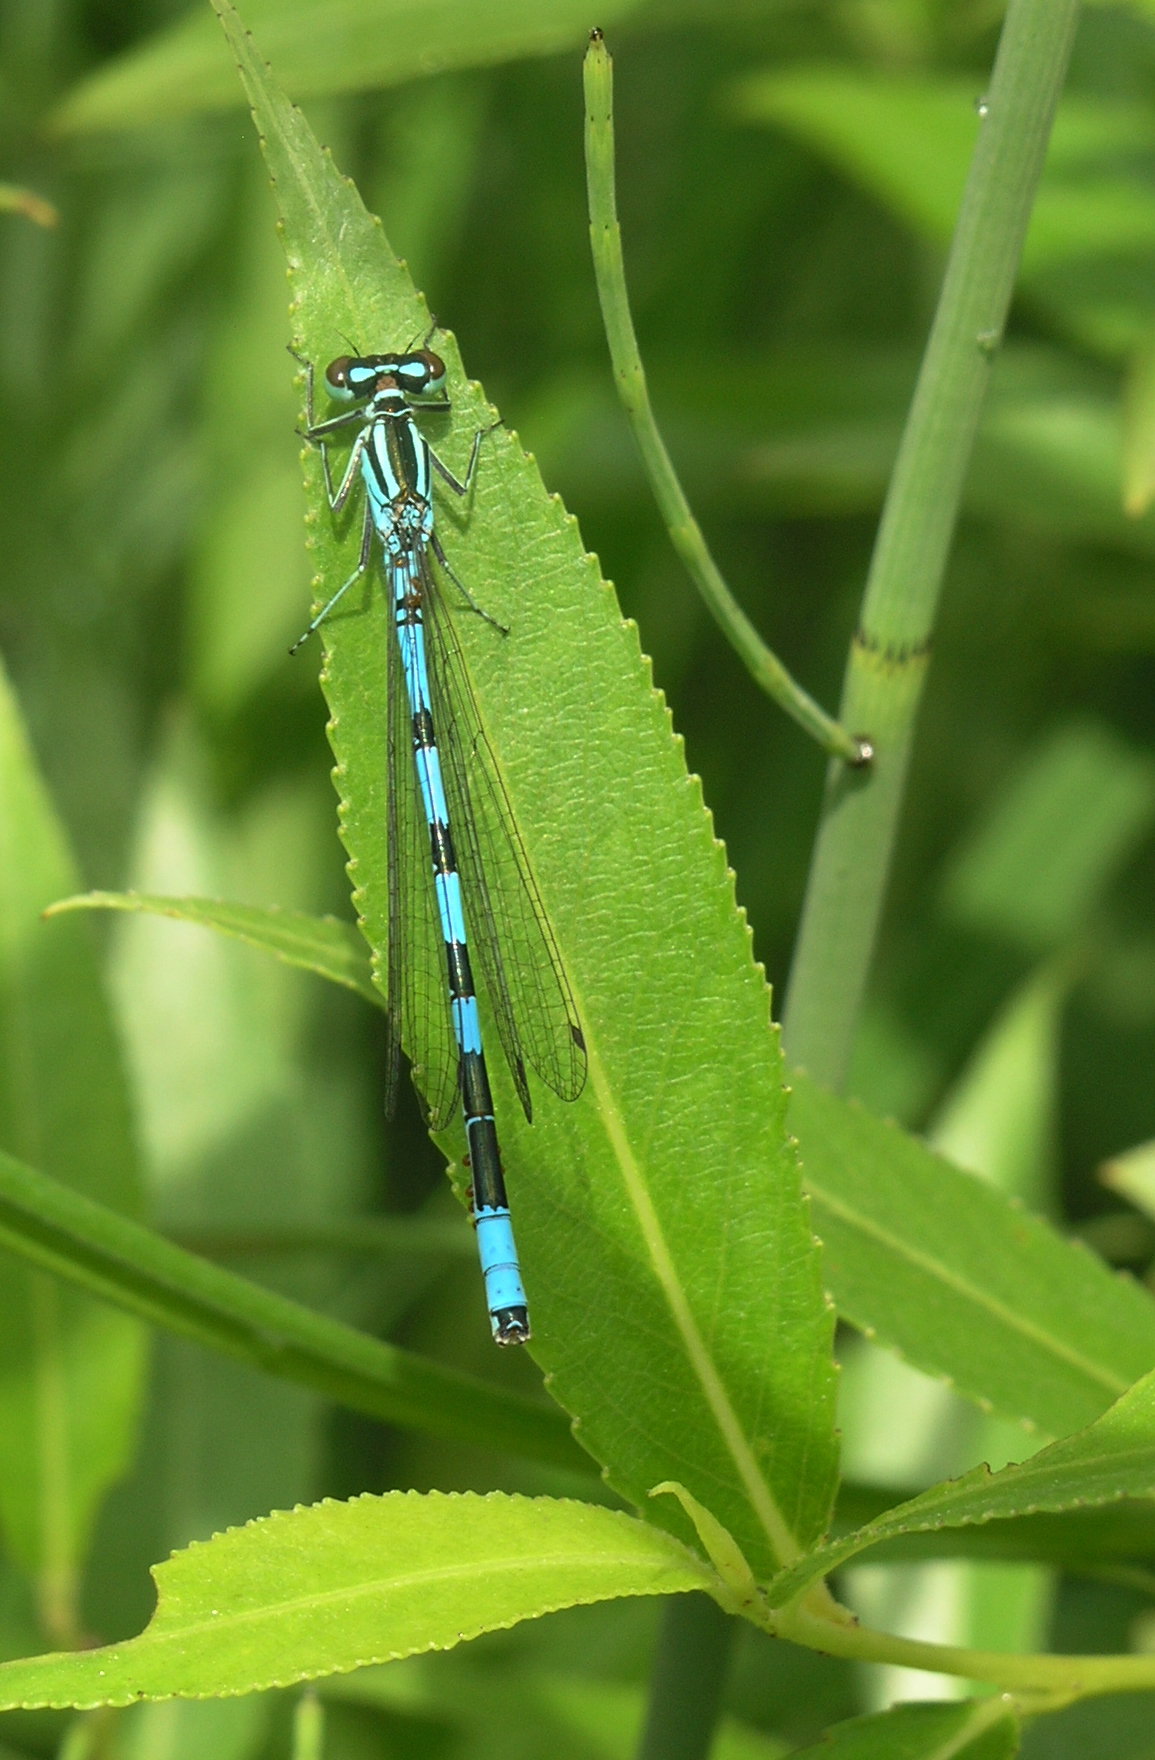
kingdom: Animalia
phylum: Arthropoda
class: Insecta
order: Odonata
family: Coenagrionidae
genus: Coenagrion
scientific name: Coenagrion hastulatum
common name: Spearhead bluet
